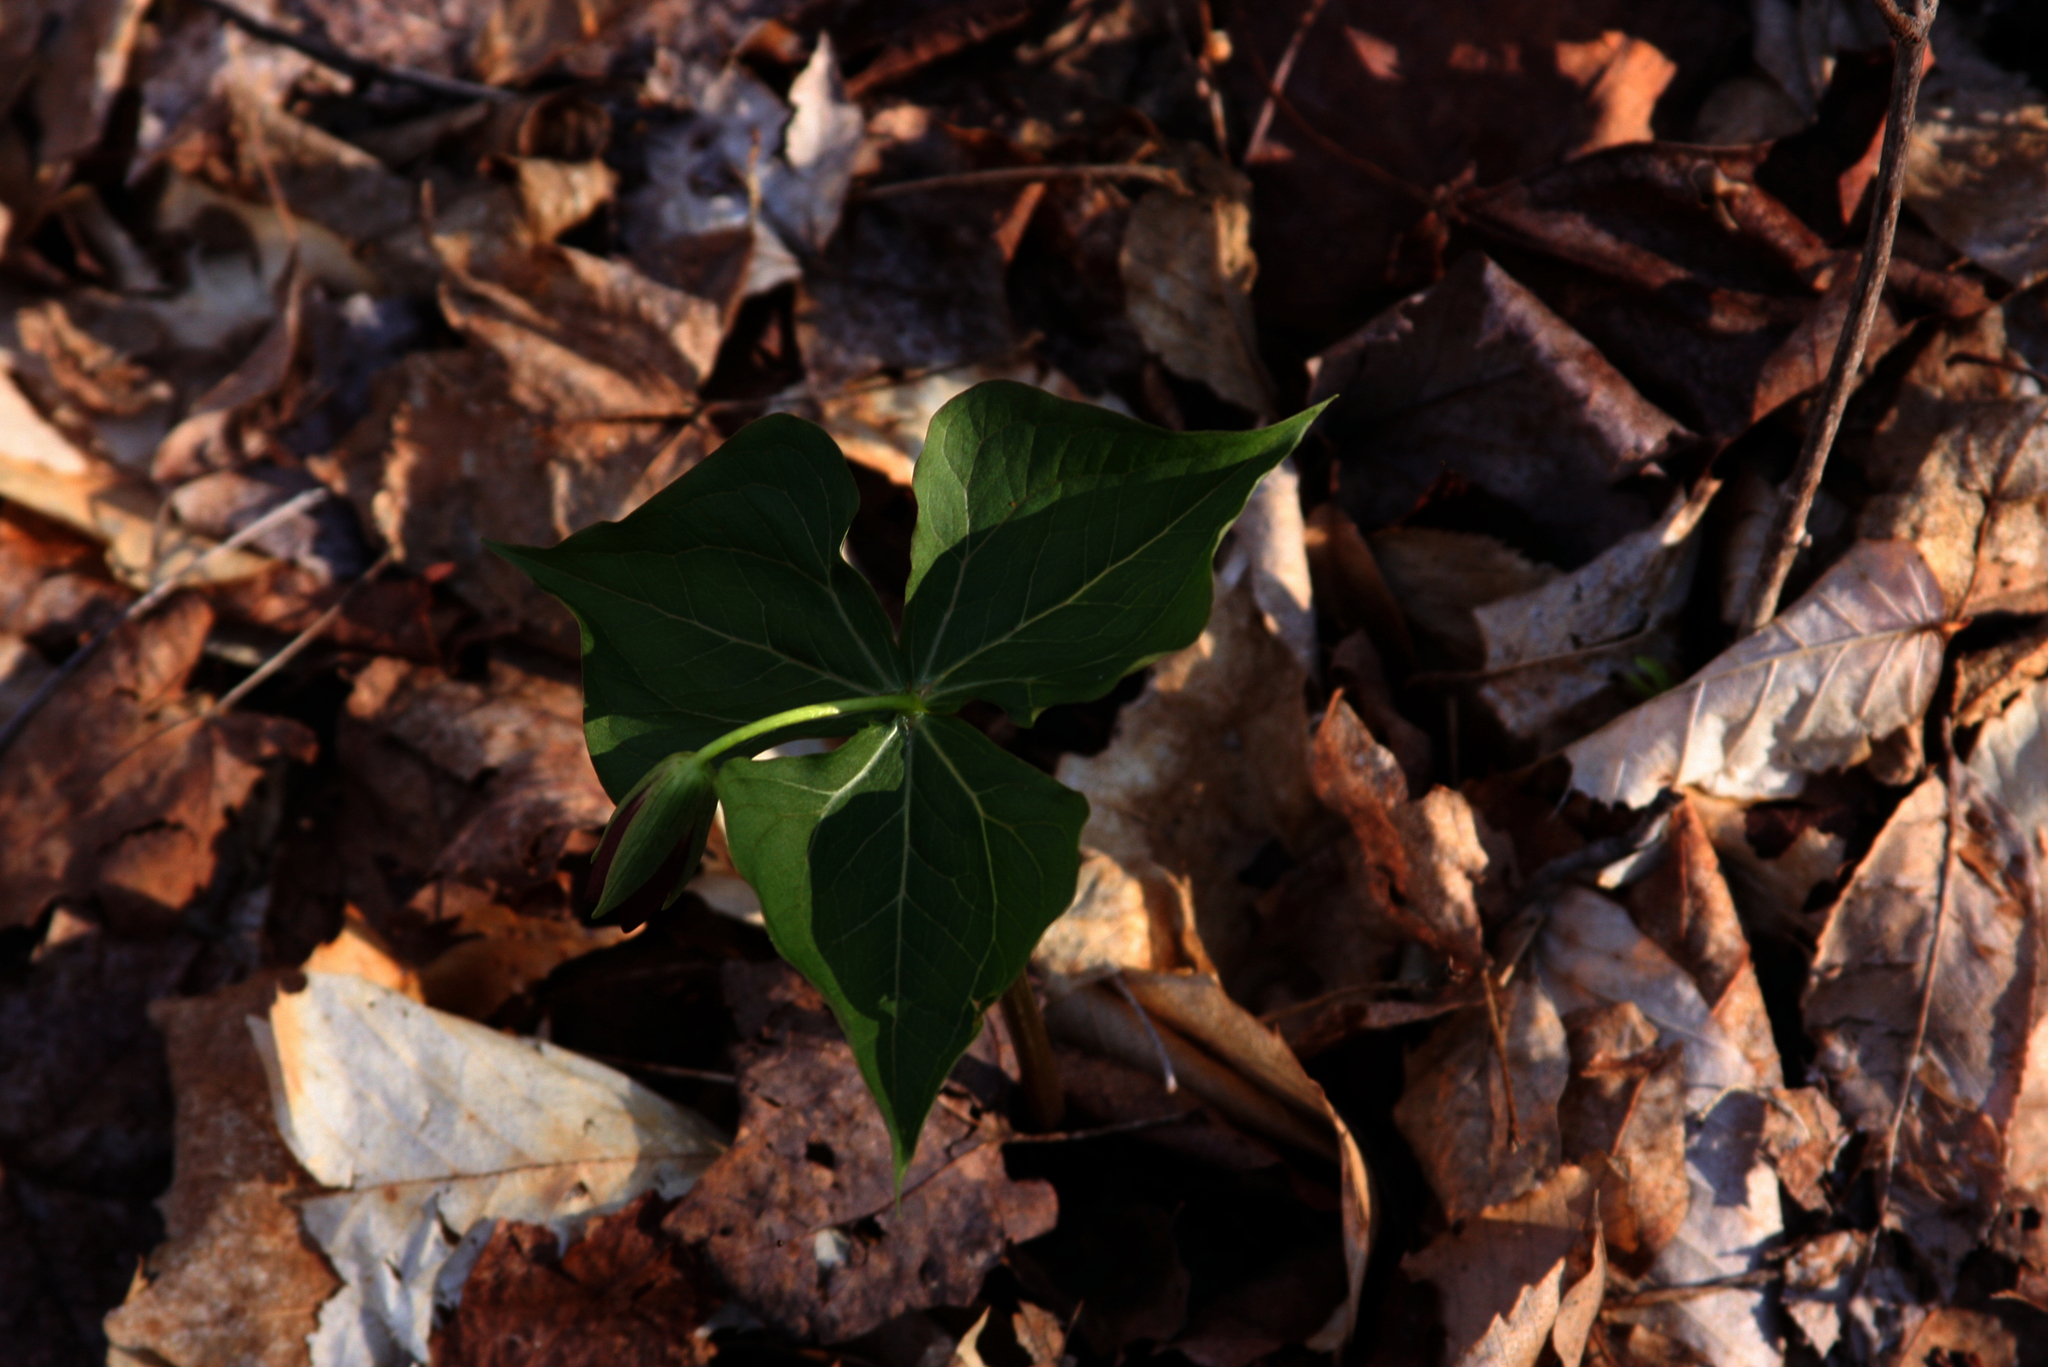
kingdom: Plantae
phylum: Tracheophyta
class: Liliopsida
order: Liliales
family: Melanthiaceae
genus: Trillium
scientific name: Trillium erectum
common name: Purple trillium
